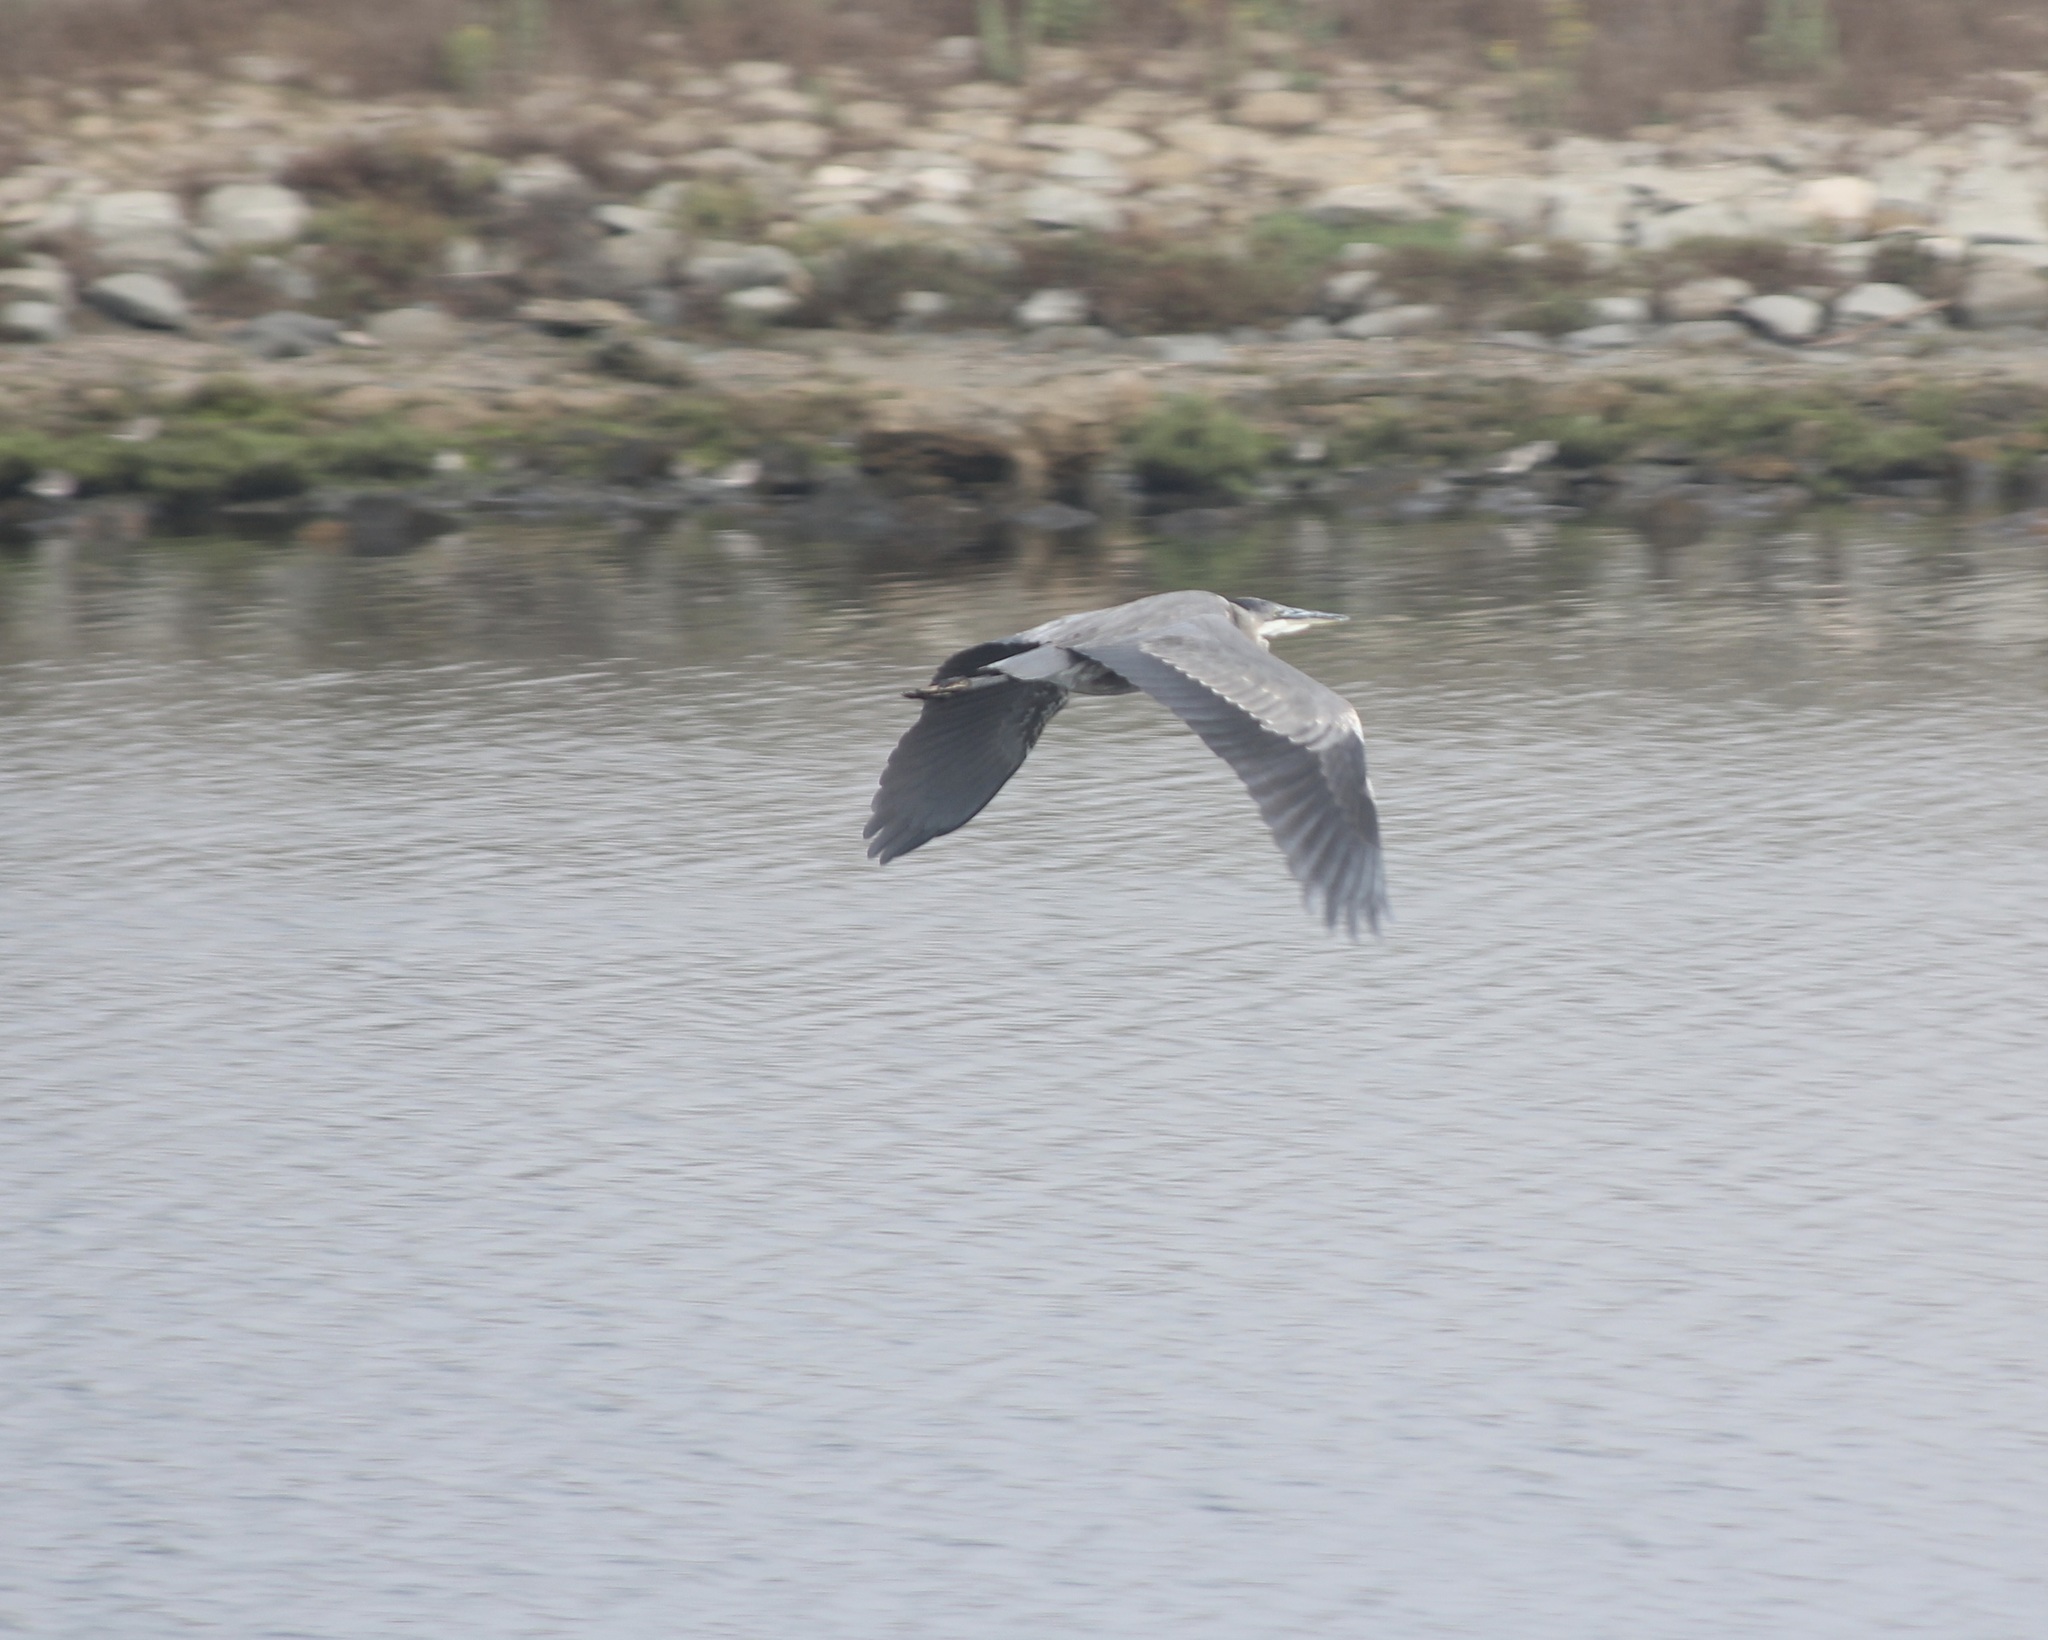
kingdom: Animalia
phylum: Chordata
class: Aves
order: Pelecaniformes
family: Ardeidae
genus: Ardea
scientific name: Ardea herodias
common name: Great blue heron
